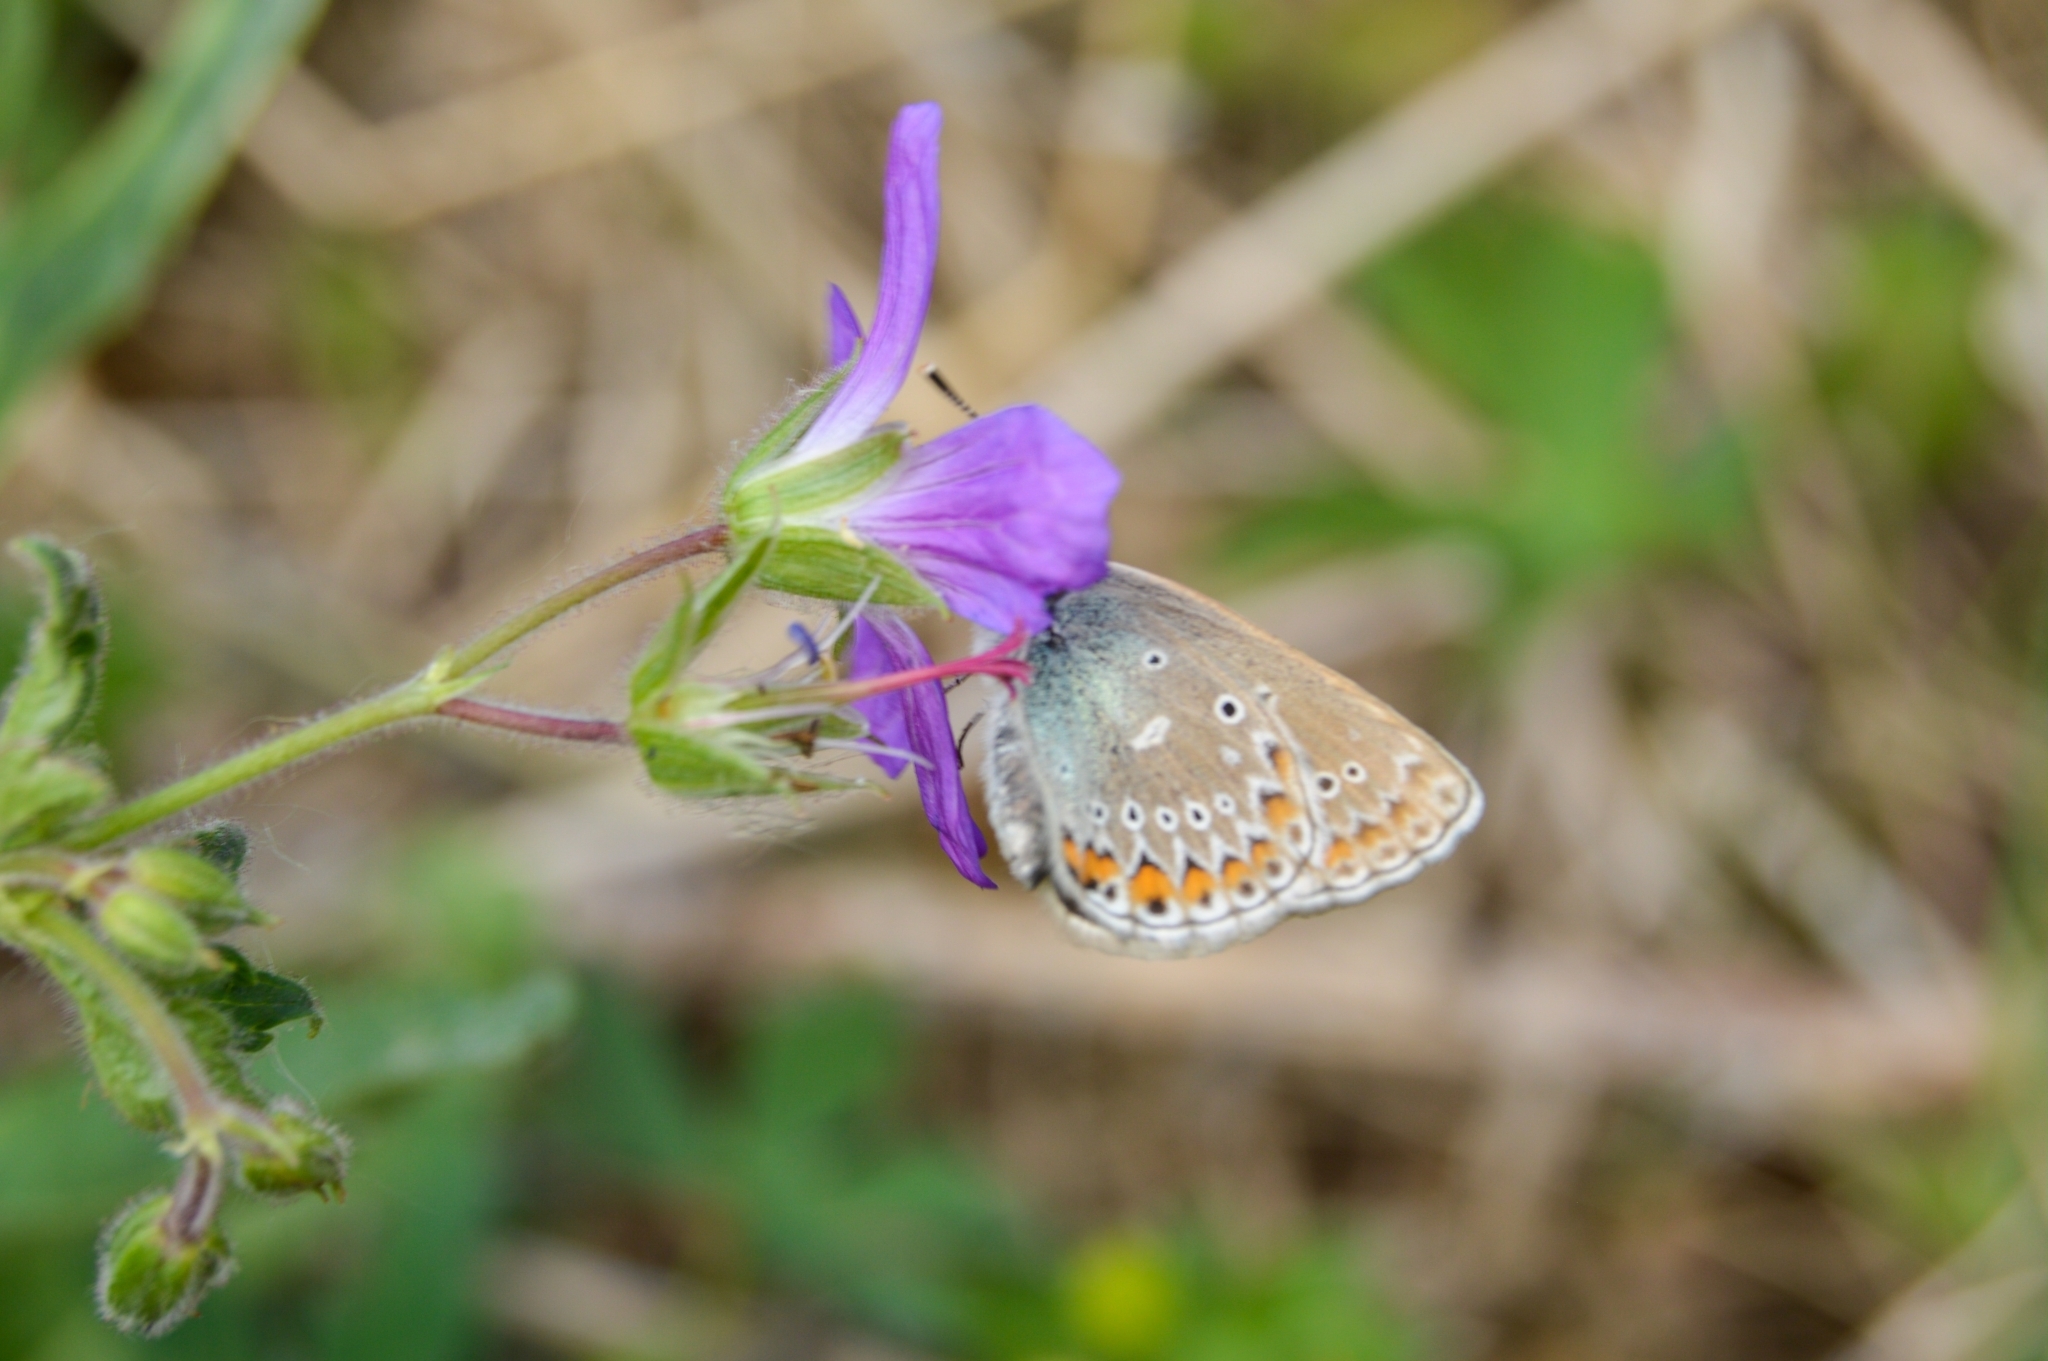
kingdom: Animalia
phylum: Arthropoda
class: Insecta
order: Lepidoptera
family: Lycaenidae
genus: Eumedonia
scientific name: Eumedonia eumedon
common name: Geranium argus
